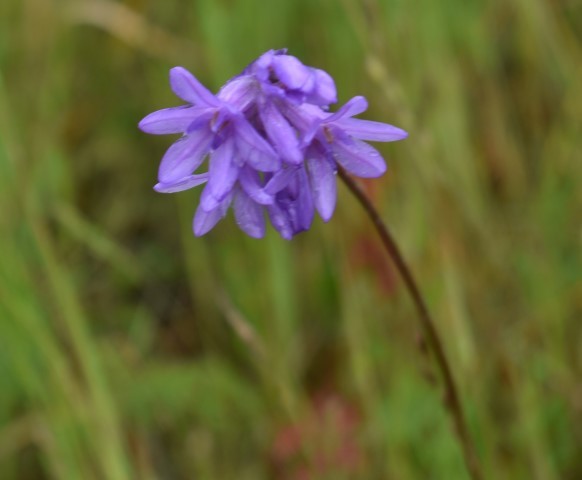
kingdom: Plantae
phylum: Tracheophyta
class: Liliopsida
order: Asparagales
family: Asparagaceae
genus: Dichelostemma
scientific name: Dichelostemma congestum
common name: Fork-tooth ookow
